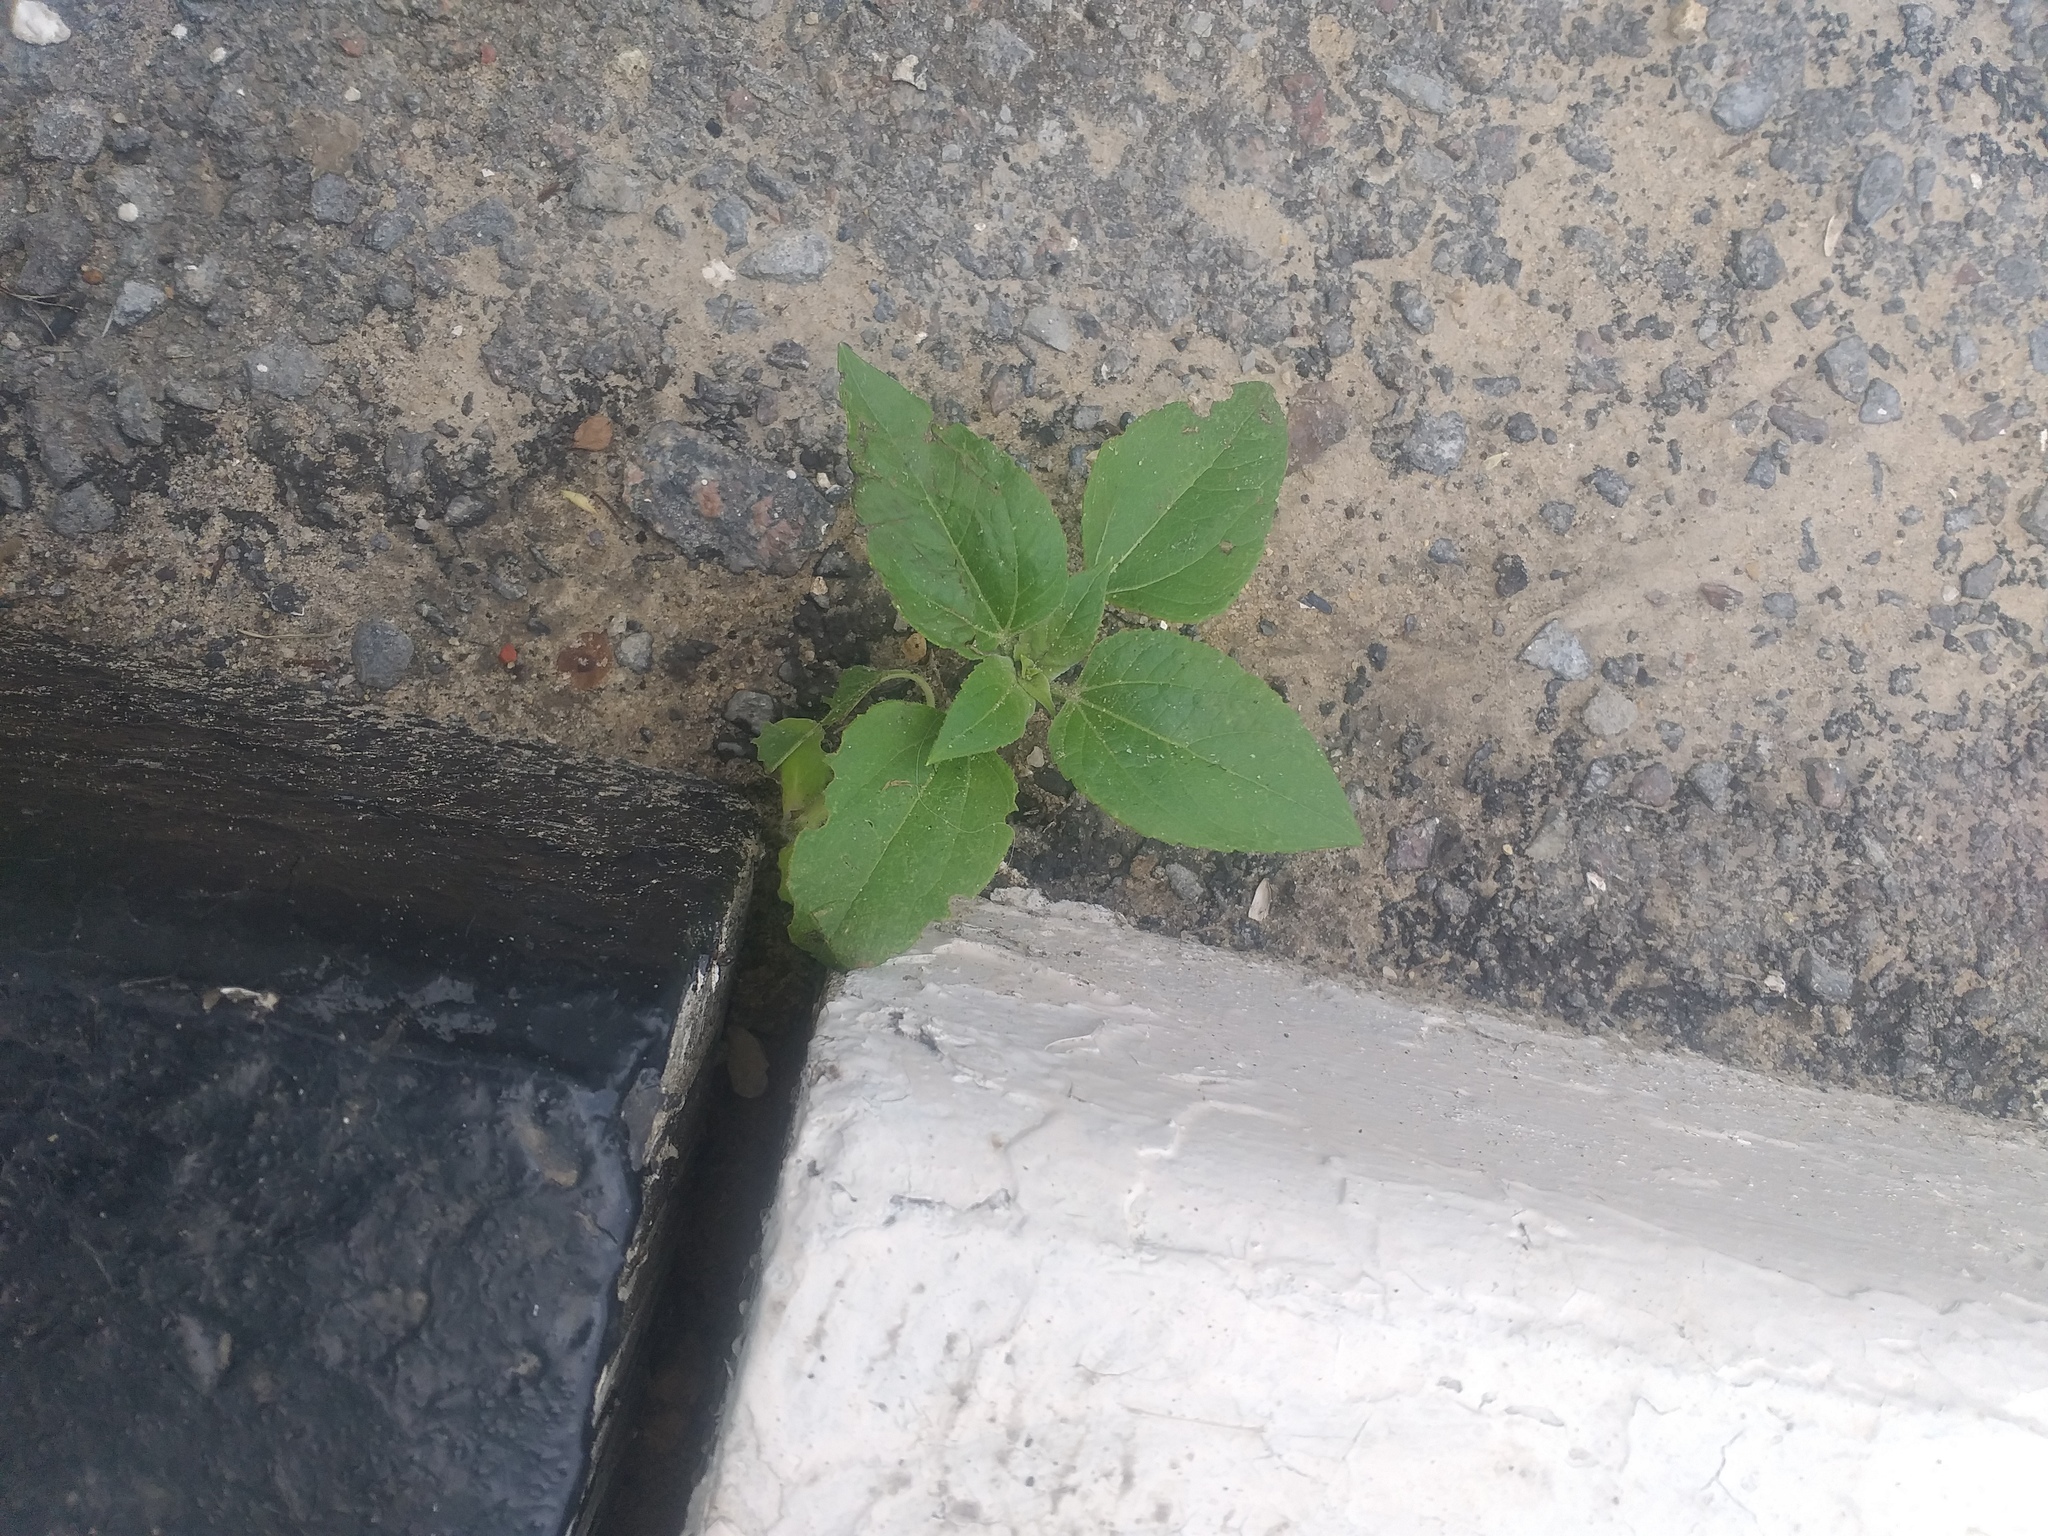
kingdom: Plantae
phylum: Tracheophyta
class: Magnoliopsida
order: Asterales
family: Asteraceae
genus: Helianthus
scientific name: Helianthus annuus
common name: Sunflower
